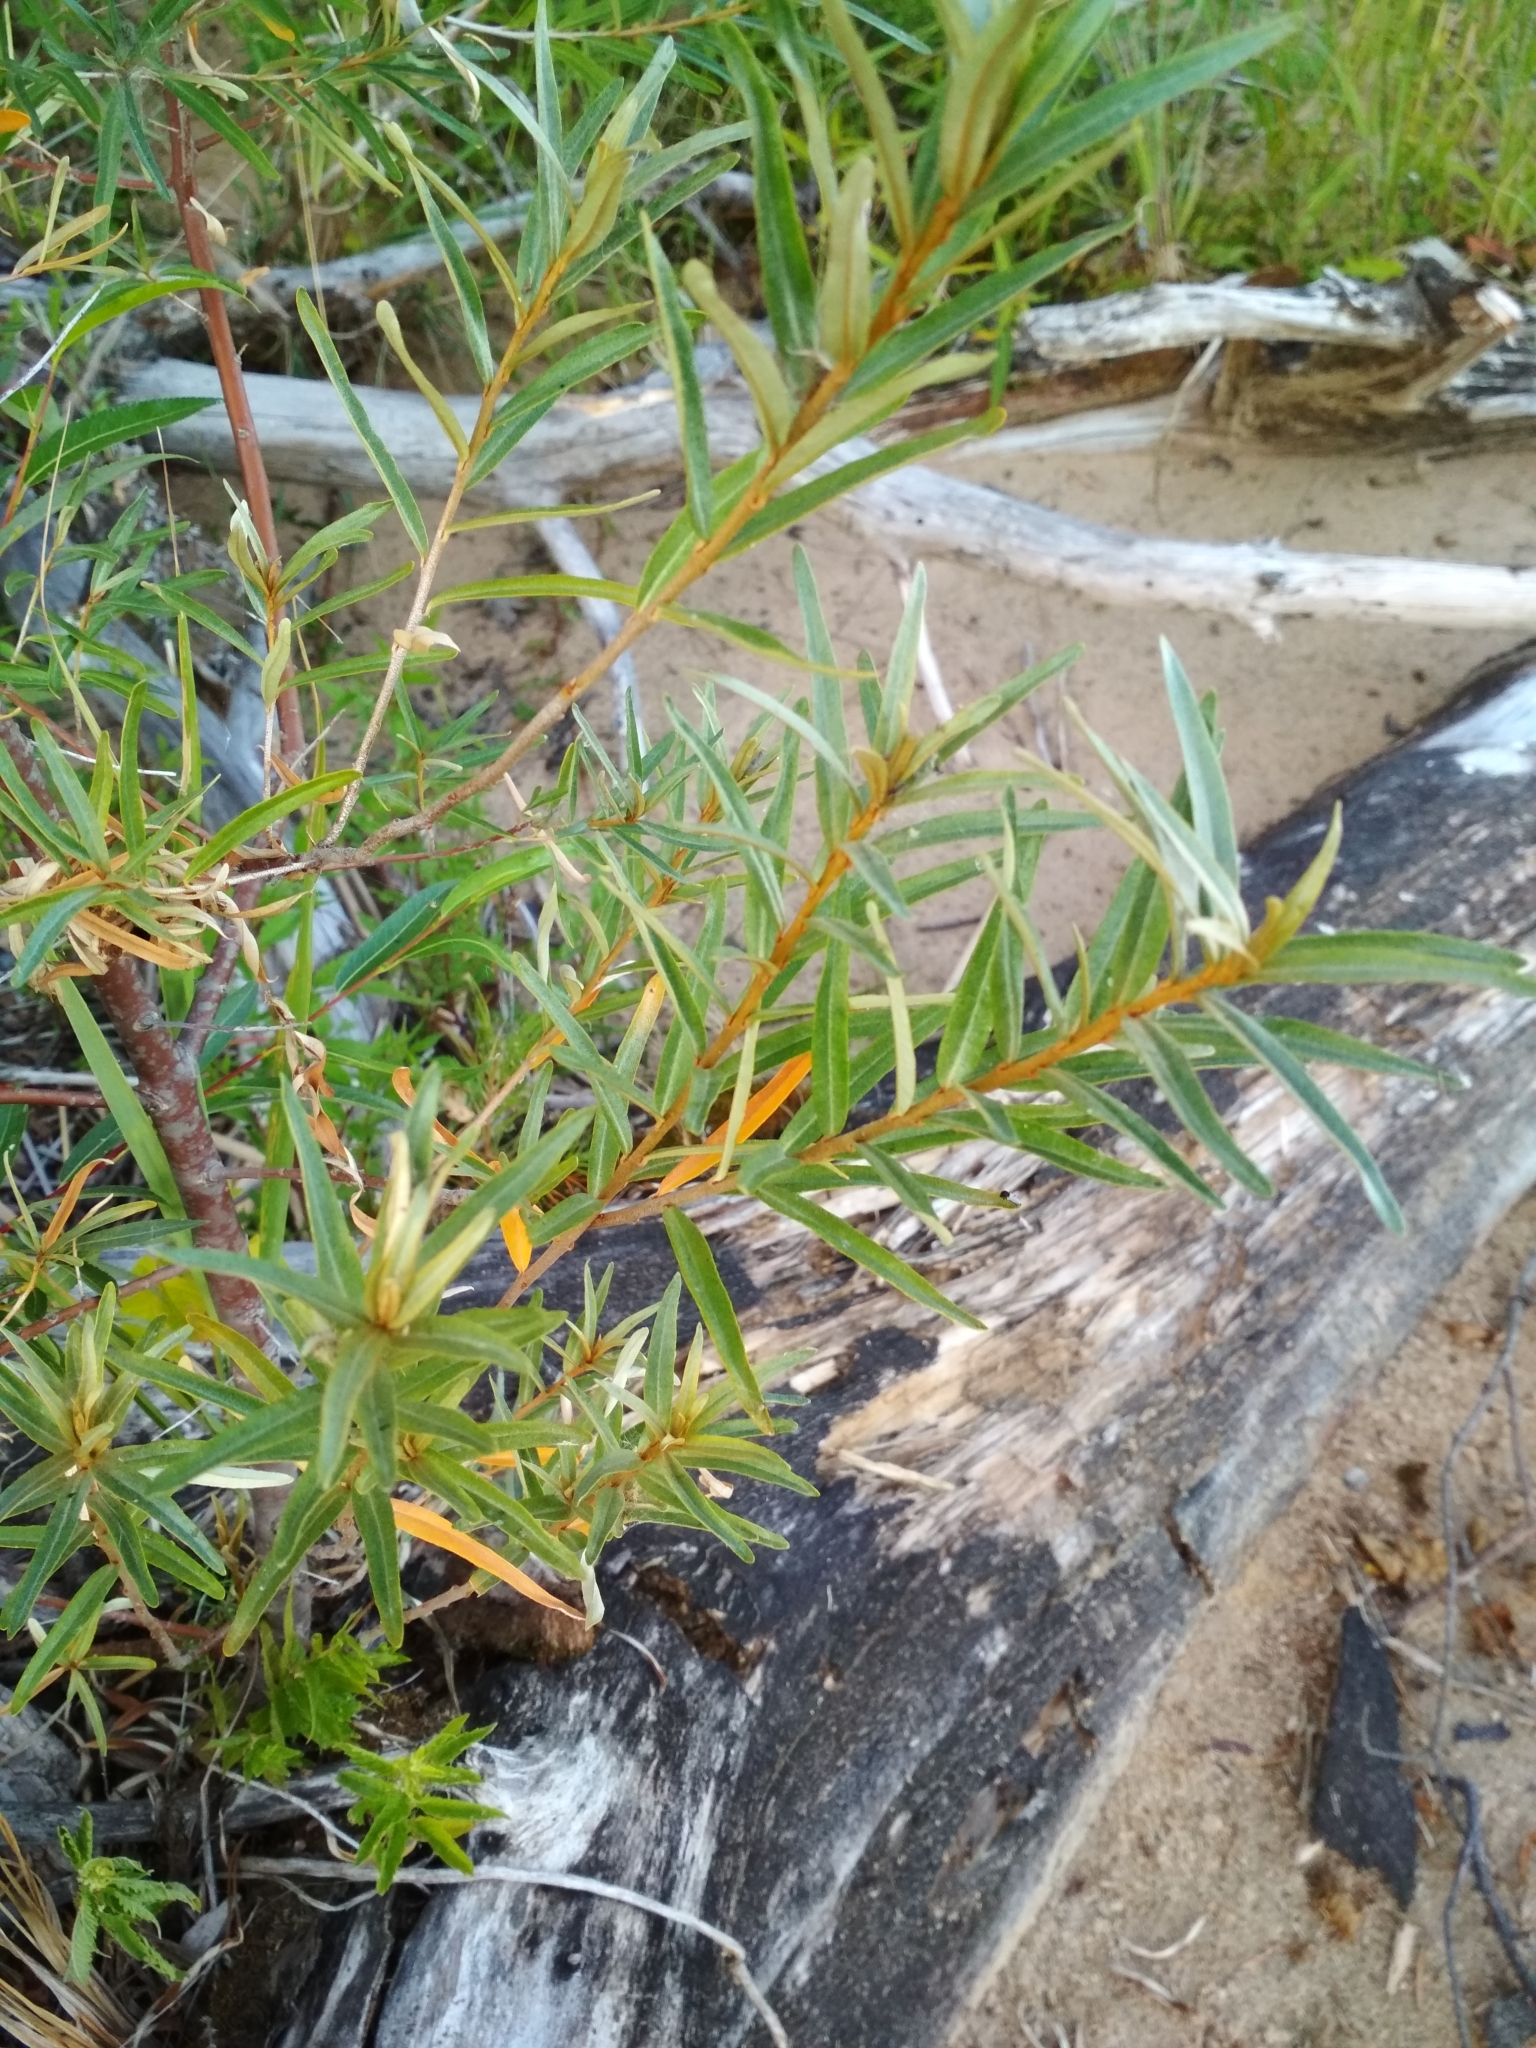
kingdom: Plantae
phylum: Tracheophyta
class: Magnoliopsida
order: Rosales
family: Elaeagnaceae
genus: Hippophae
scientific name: Hippophae rhamnoides
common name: Sea-buckthorn
